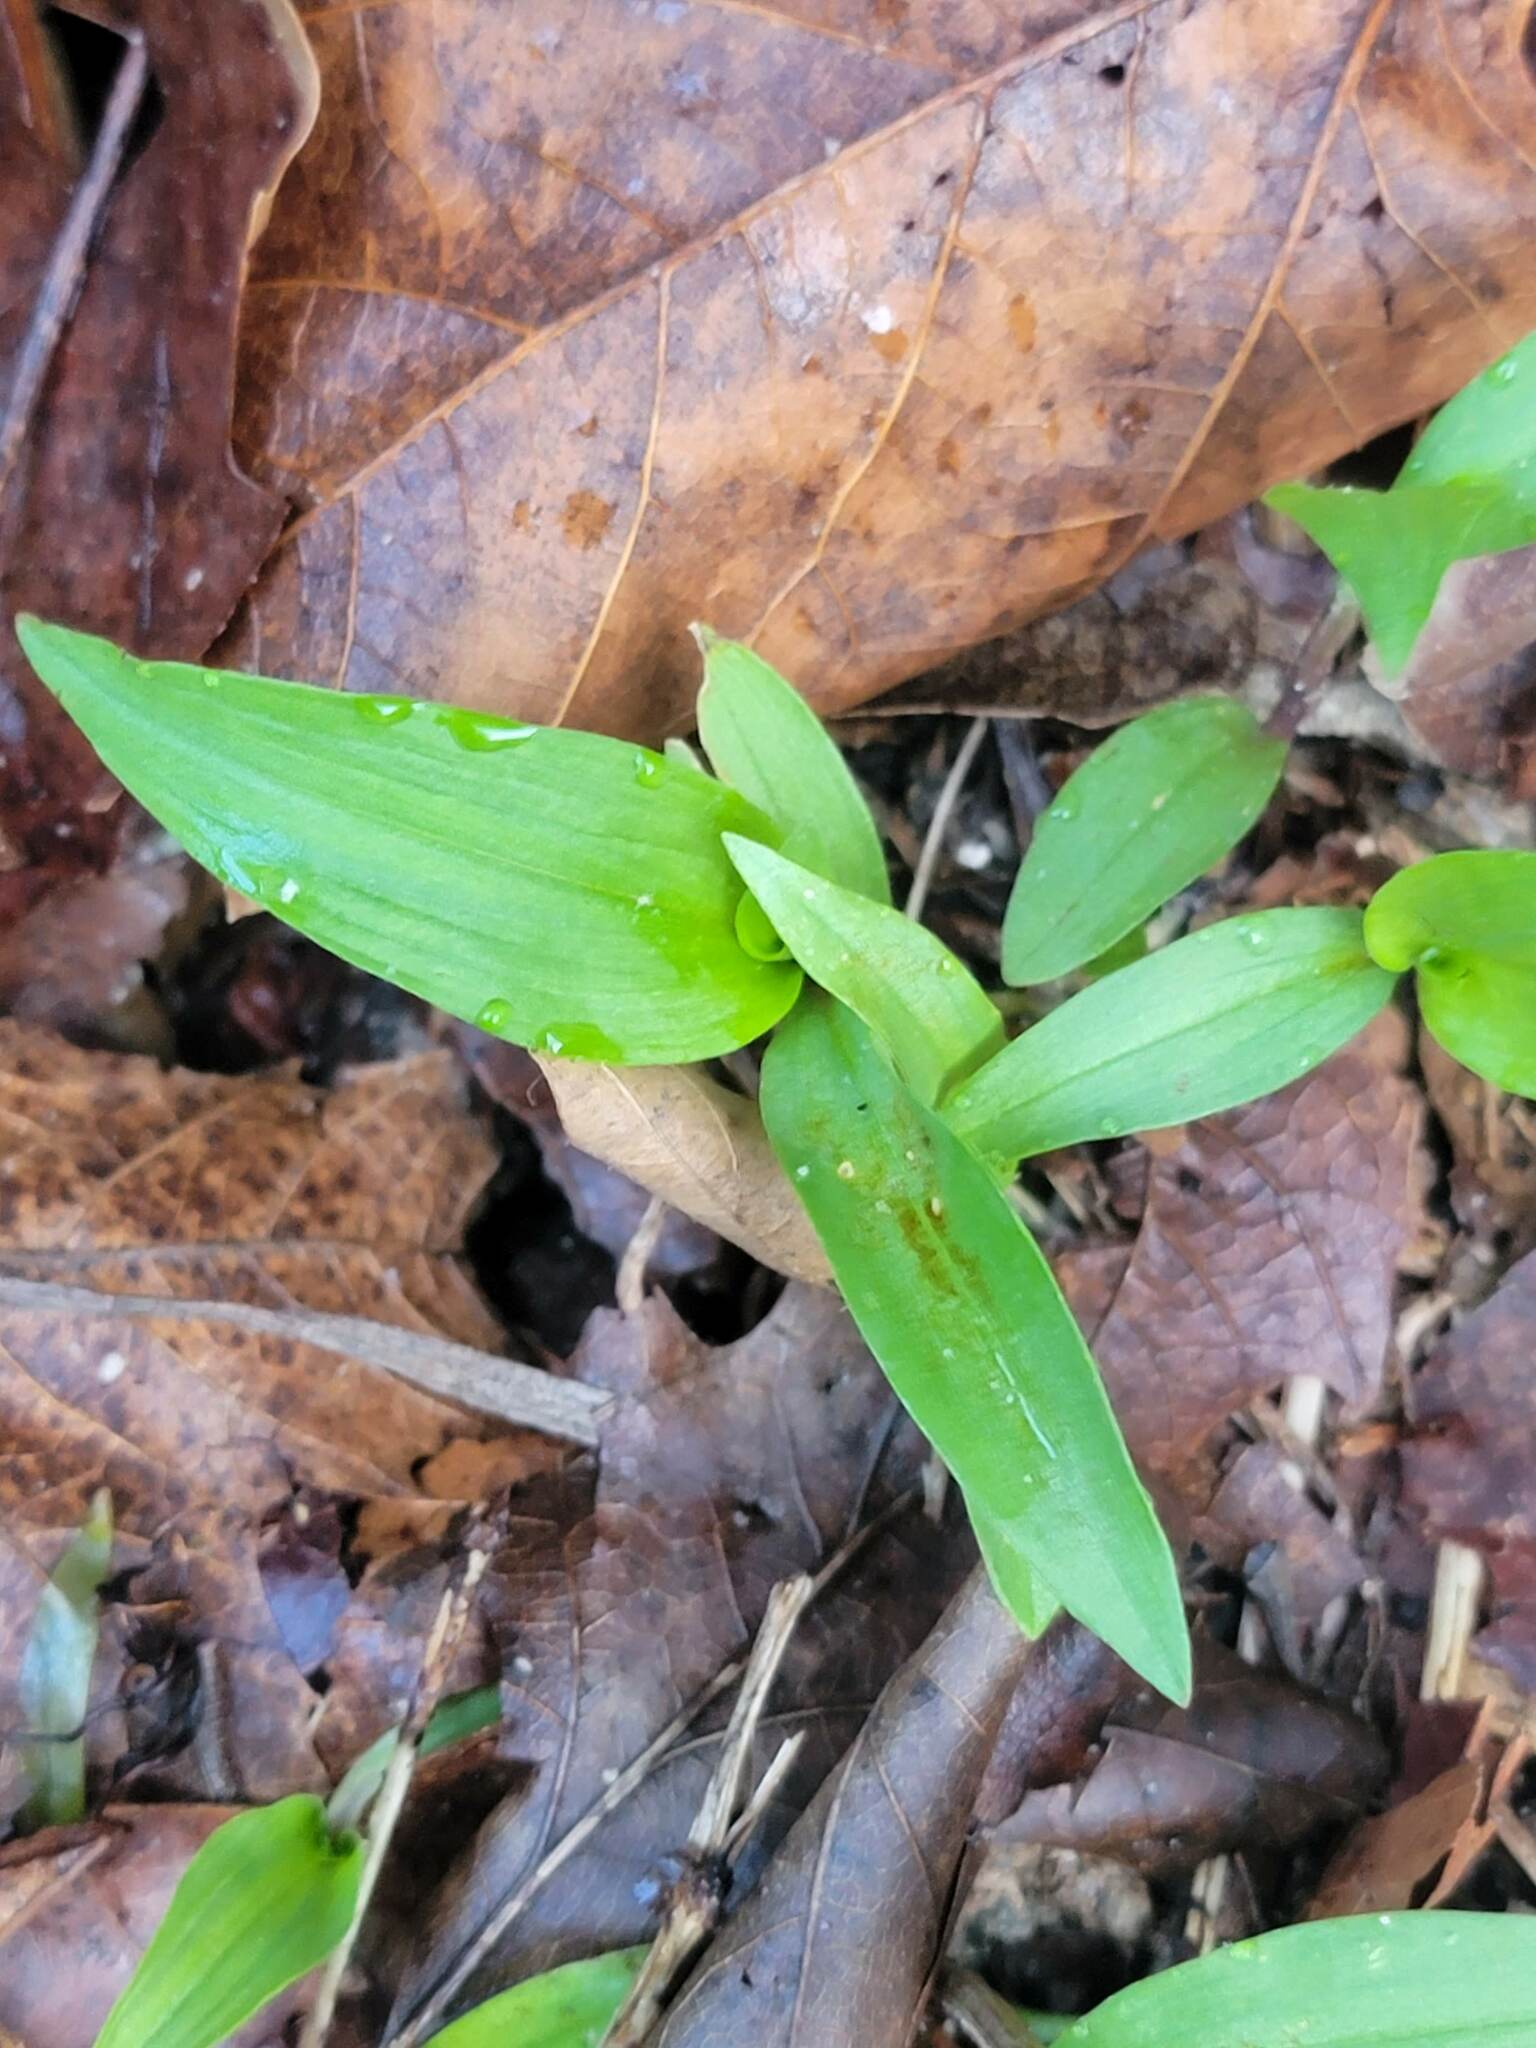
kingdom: Plantae
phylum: Tracheophyta
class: Liliopsida
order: Commelinales
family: Commelinaceae
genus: Commelina
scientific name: Commelina communis
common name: Asiatic dayflower
